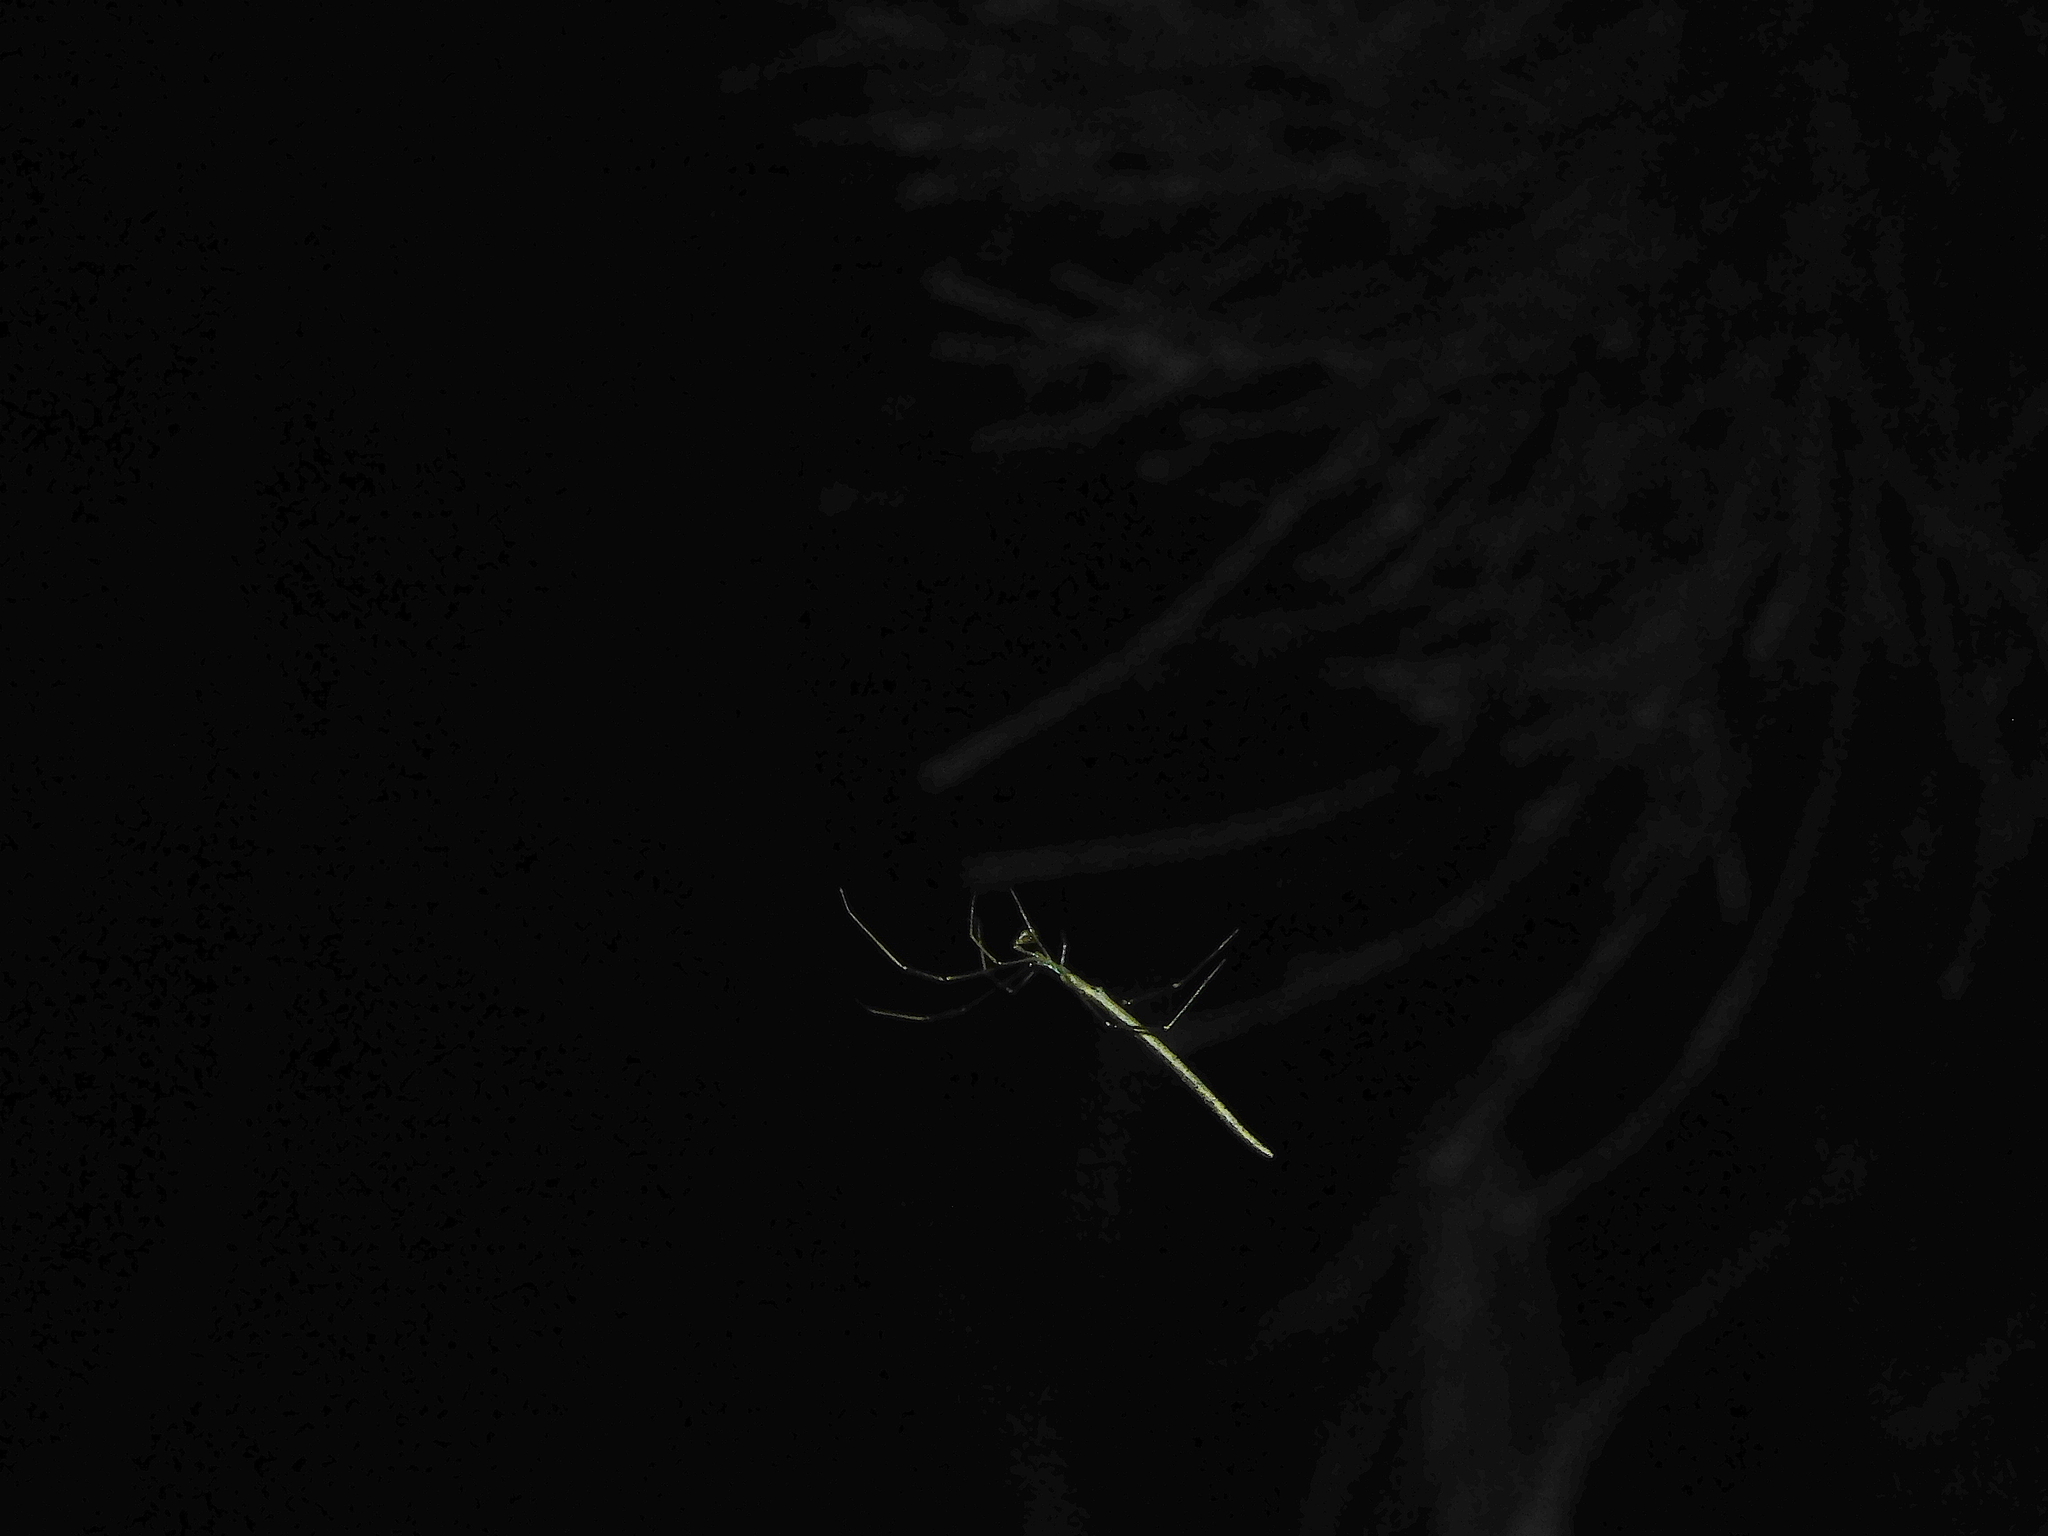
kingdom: Animalia
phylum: Arthropoda
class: Arachnida
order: Araneae
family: Theridiidae
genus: Ariamnes
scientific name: Ariamnes colubrinus
